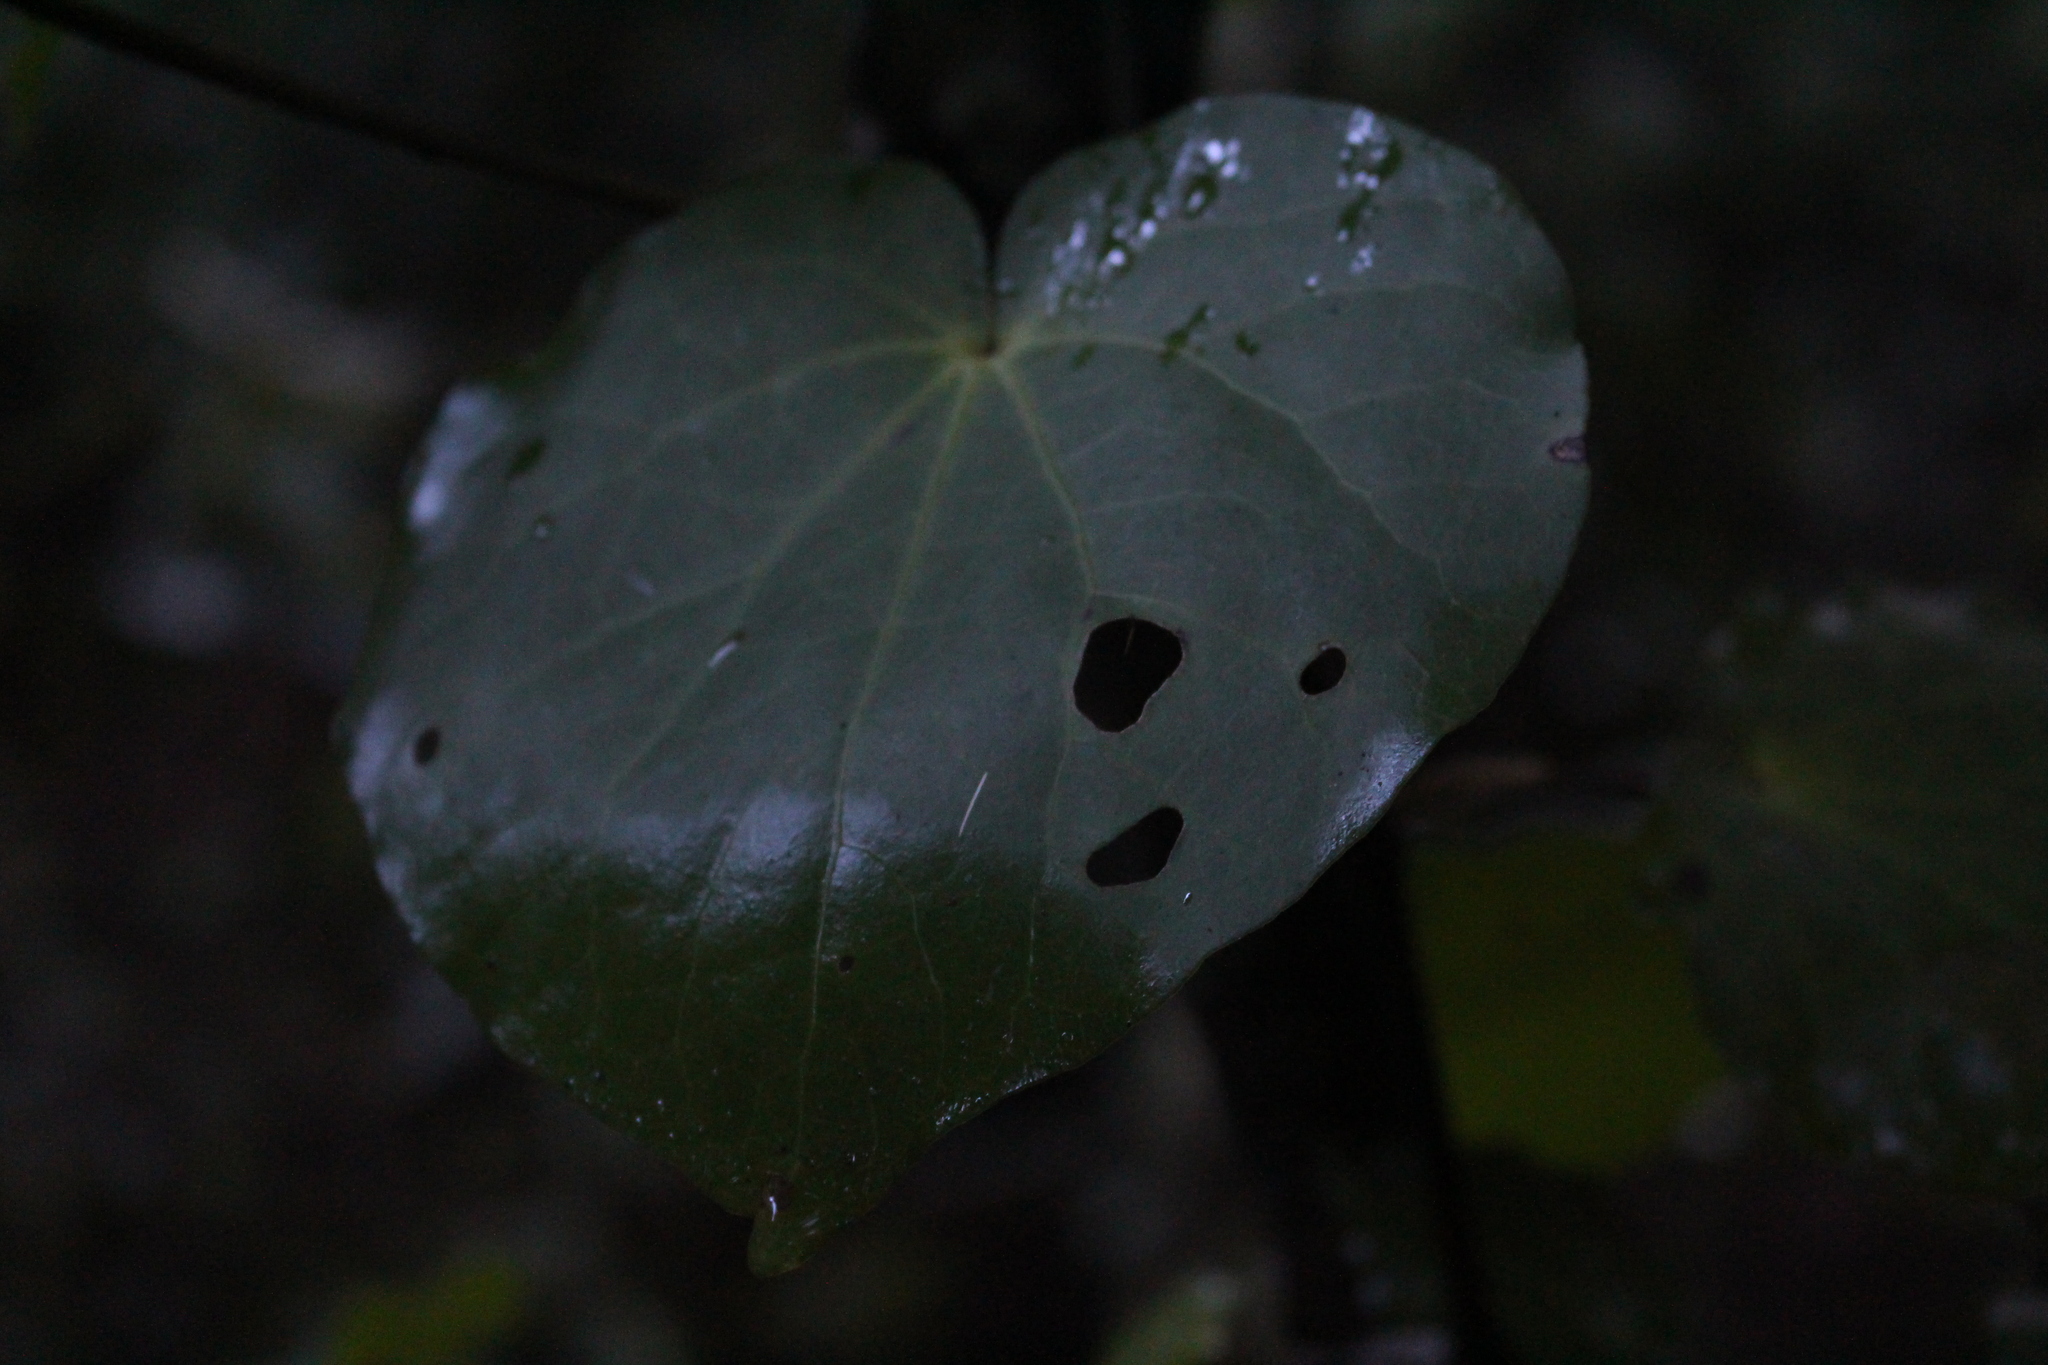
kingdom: Plantae
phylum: Tracheophyta
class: Magnoliopsida
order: Piperales
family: Piperaceae
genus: Macropiper
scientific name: Macropiper excelsum
